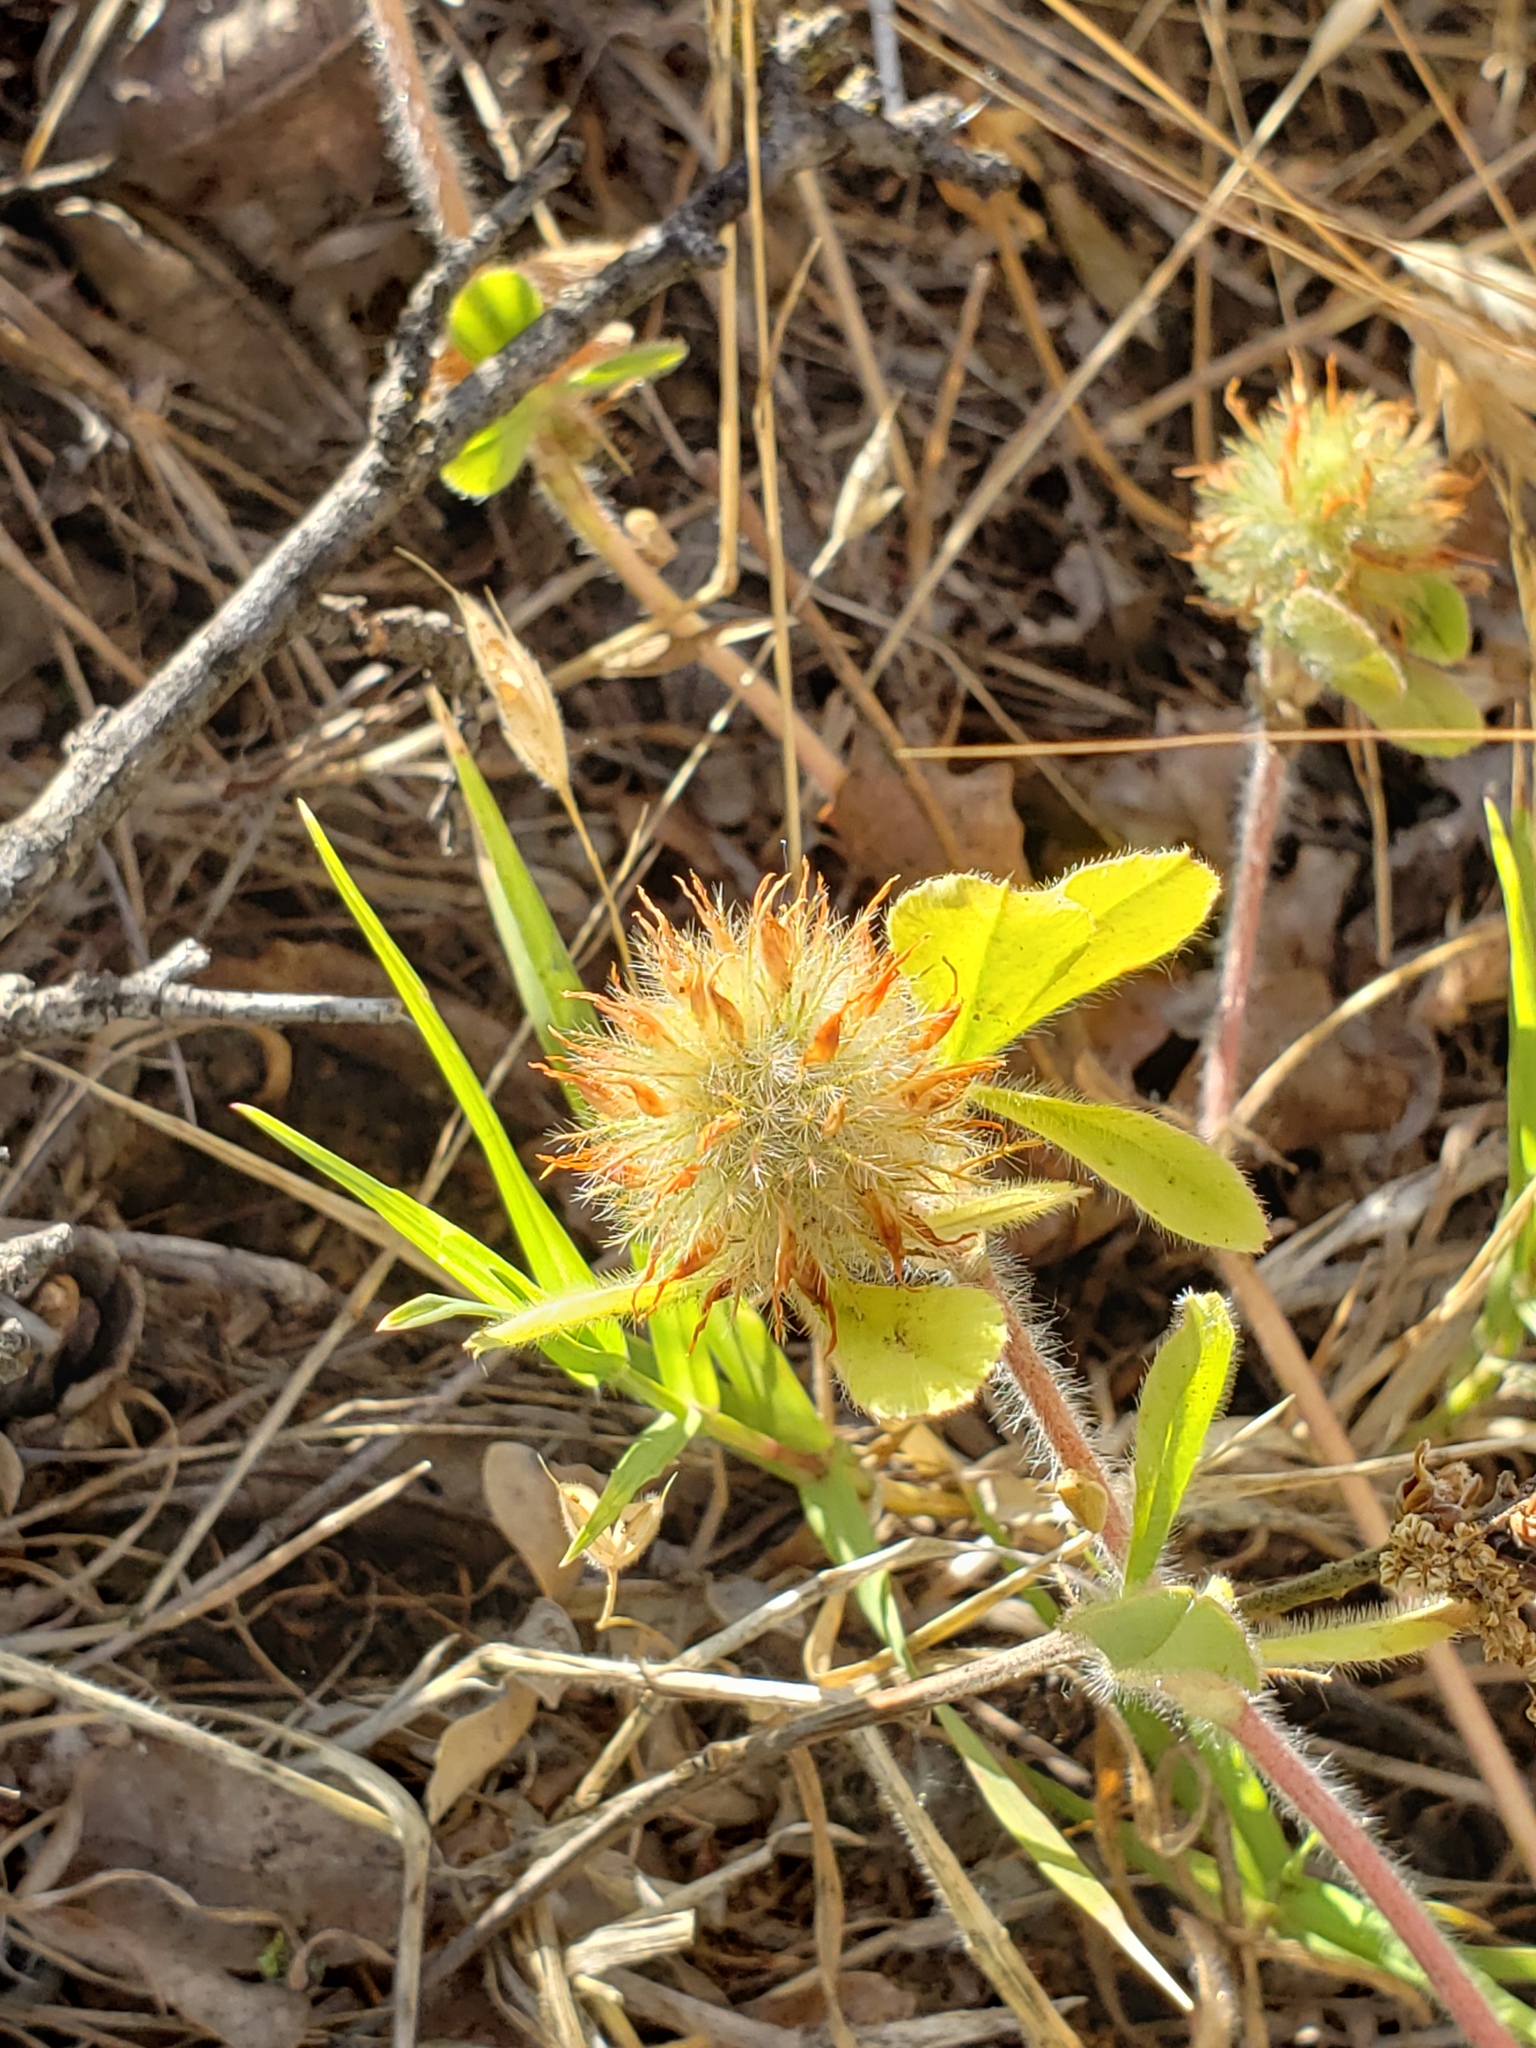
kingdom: Plantae
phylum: Tracheophyta
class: Magnoliopsida
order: Fabales
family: Fabaceae
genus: Trifolium
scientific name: Trifolium hirtum
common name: Rose clover
